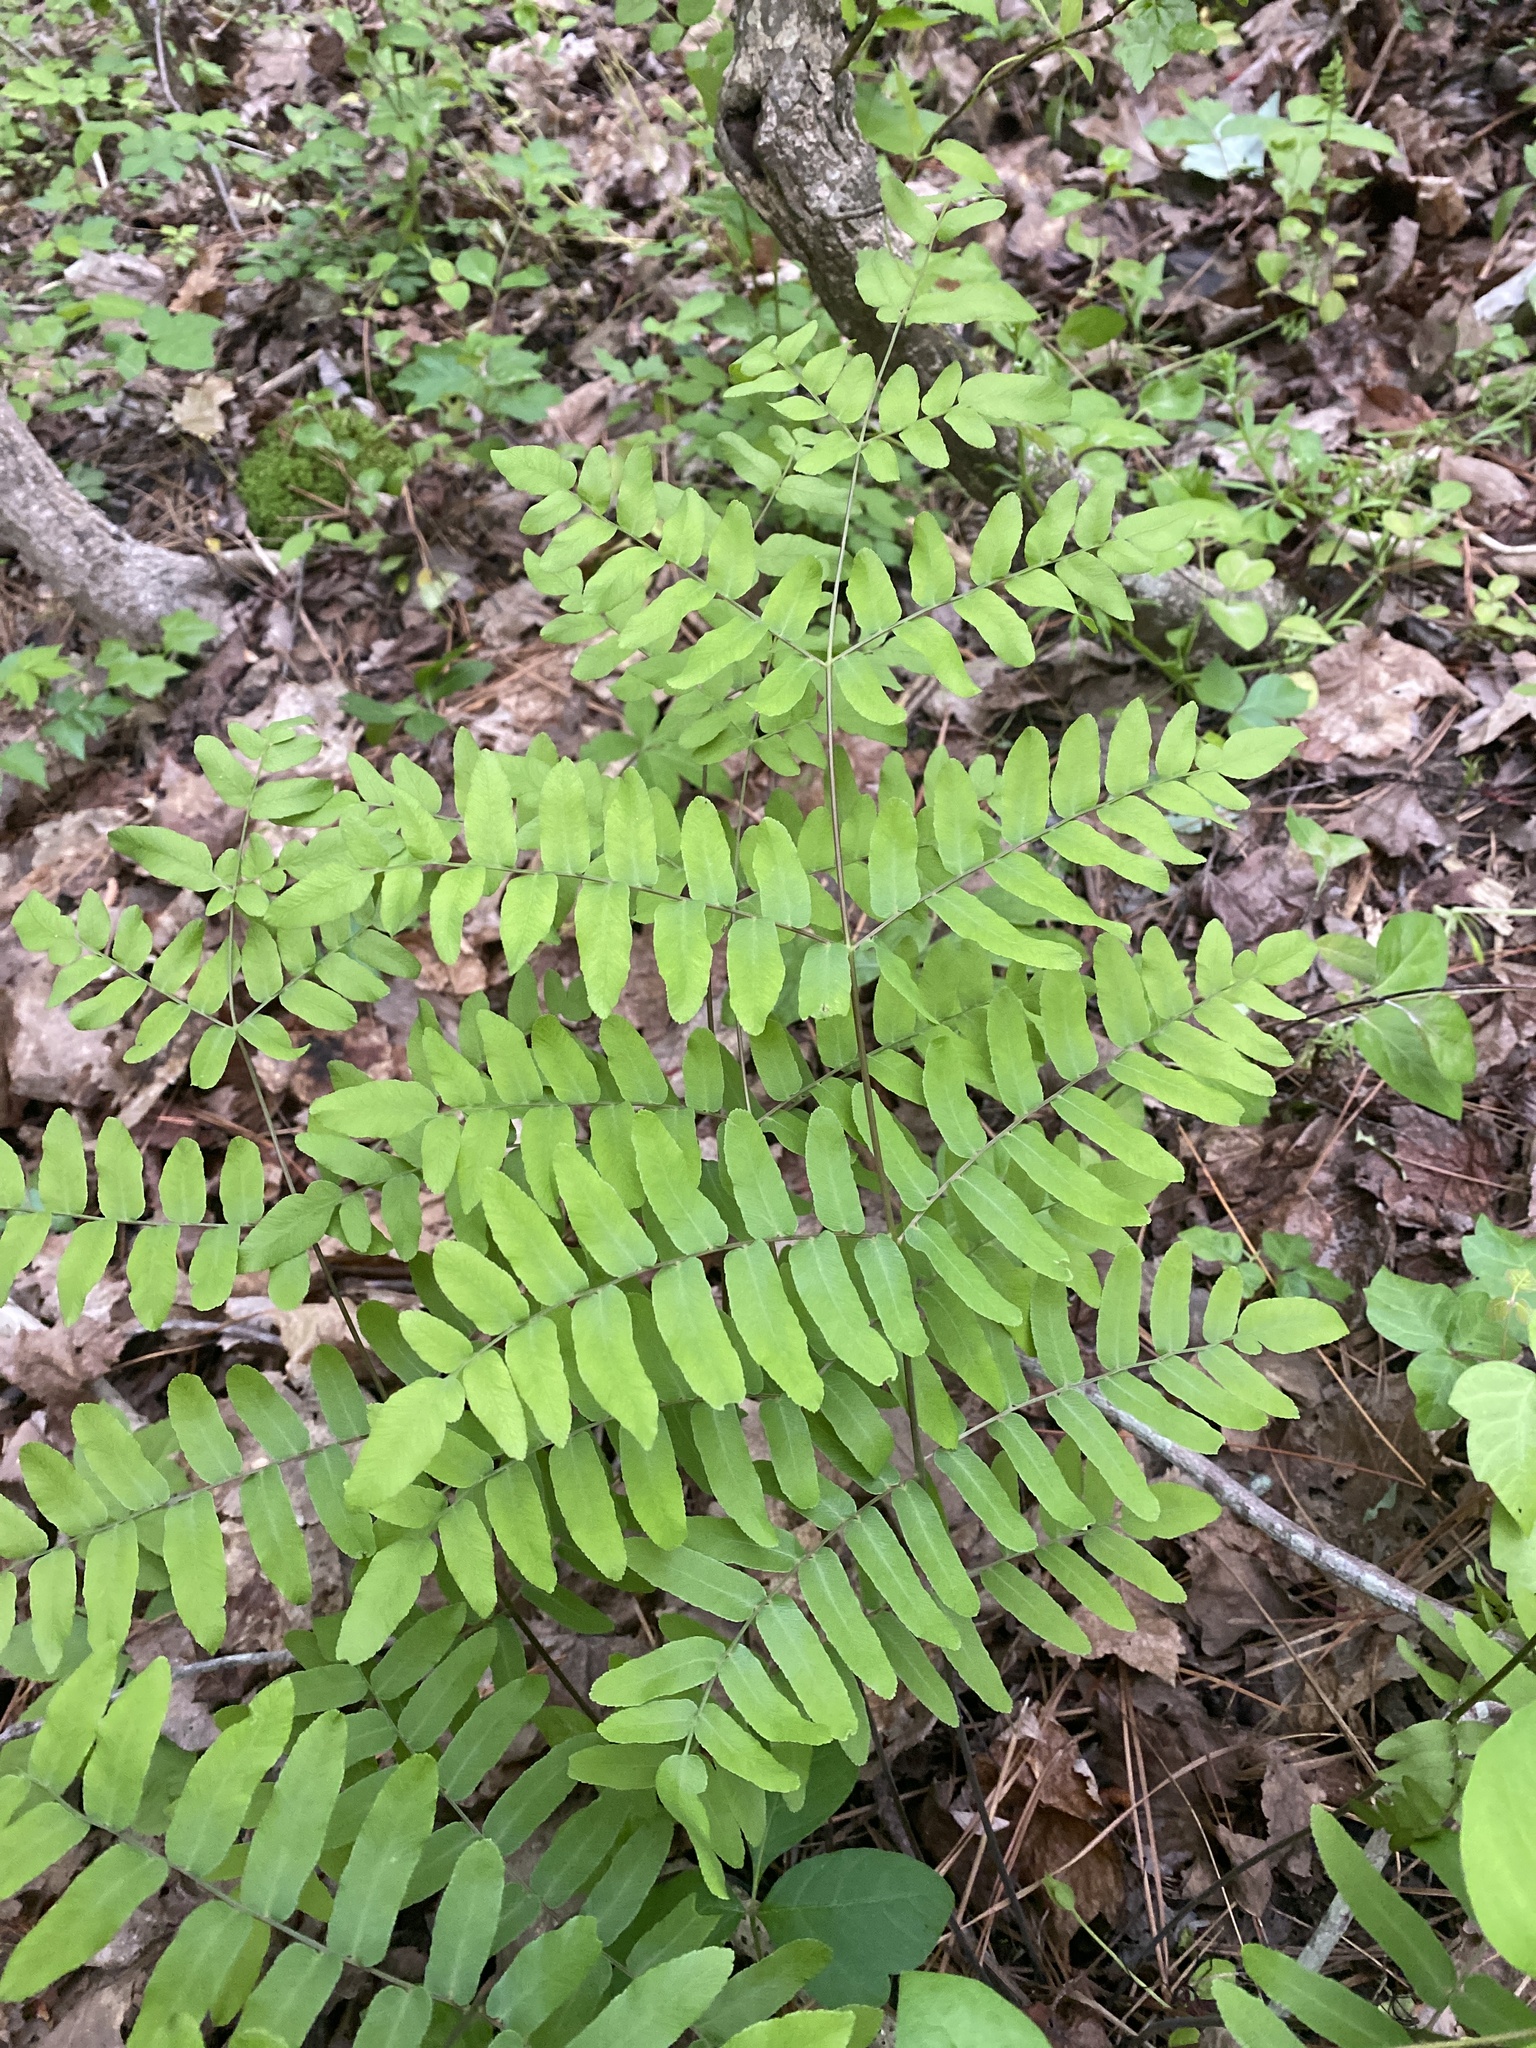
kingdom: Plantae
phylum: Tracheophyta
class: Polypodiopsida
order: Osmundales
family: Osmundaceae
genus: Osmunda
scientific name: Osmunda spectabilis
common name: American royal fern
